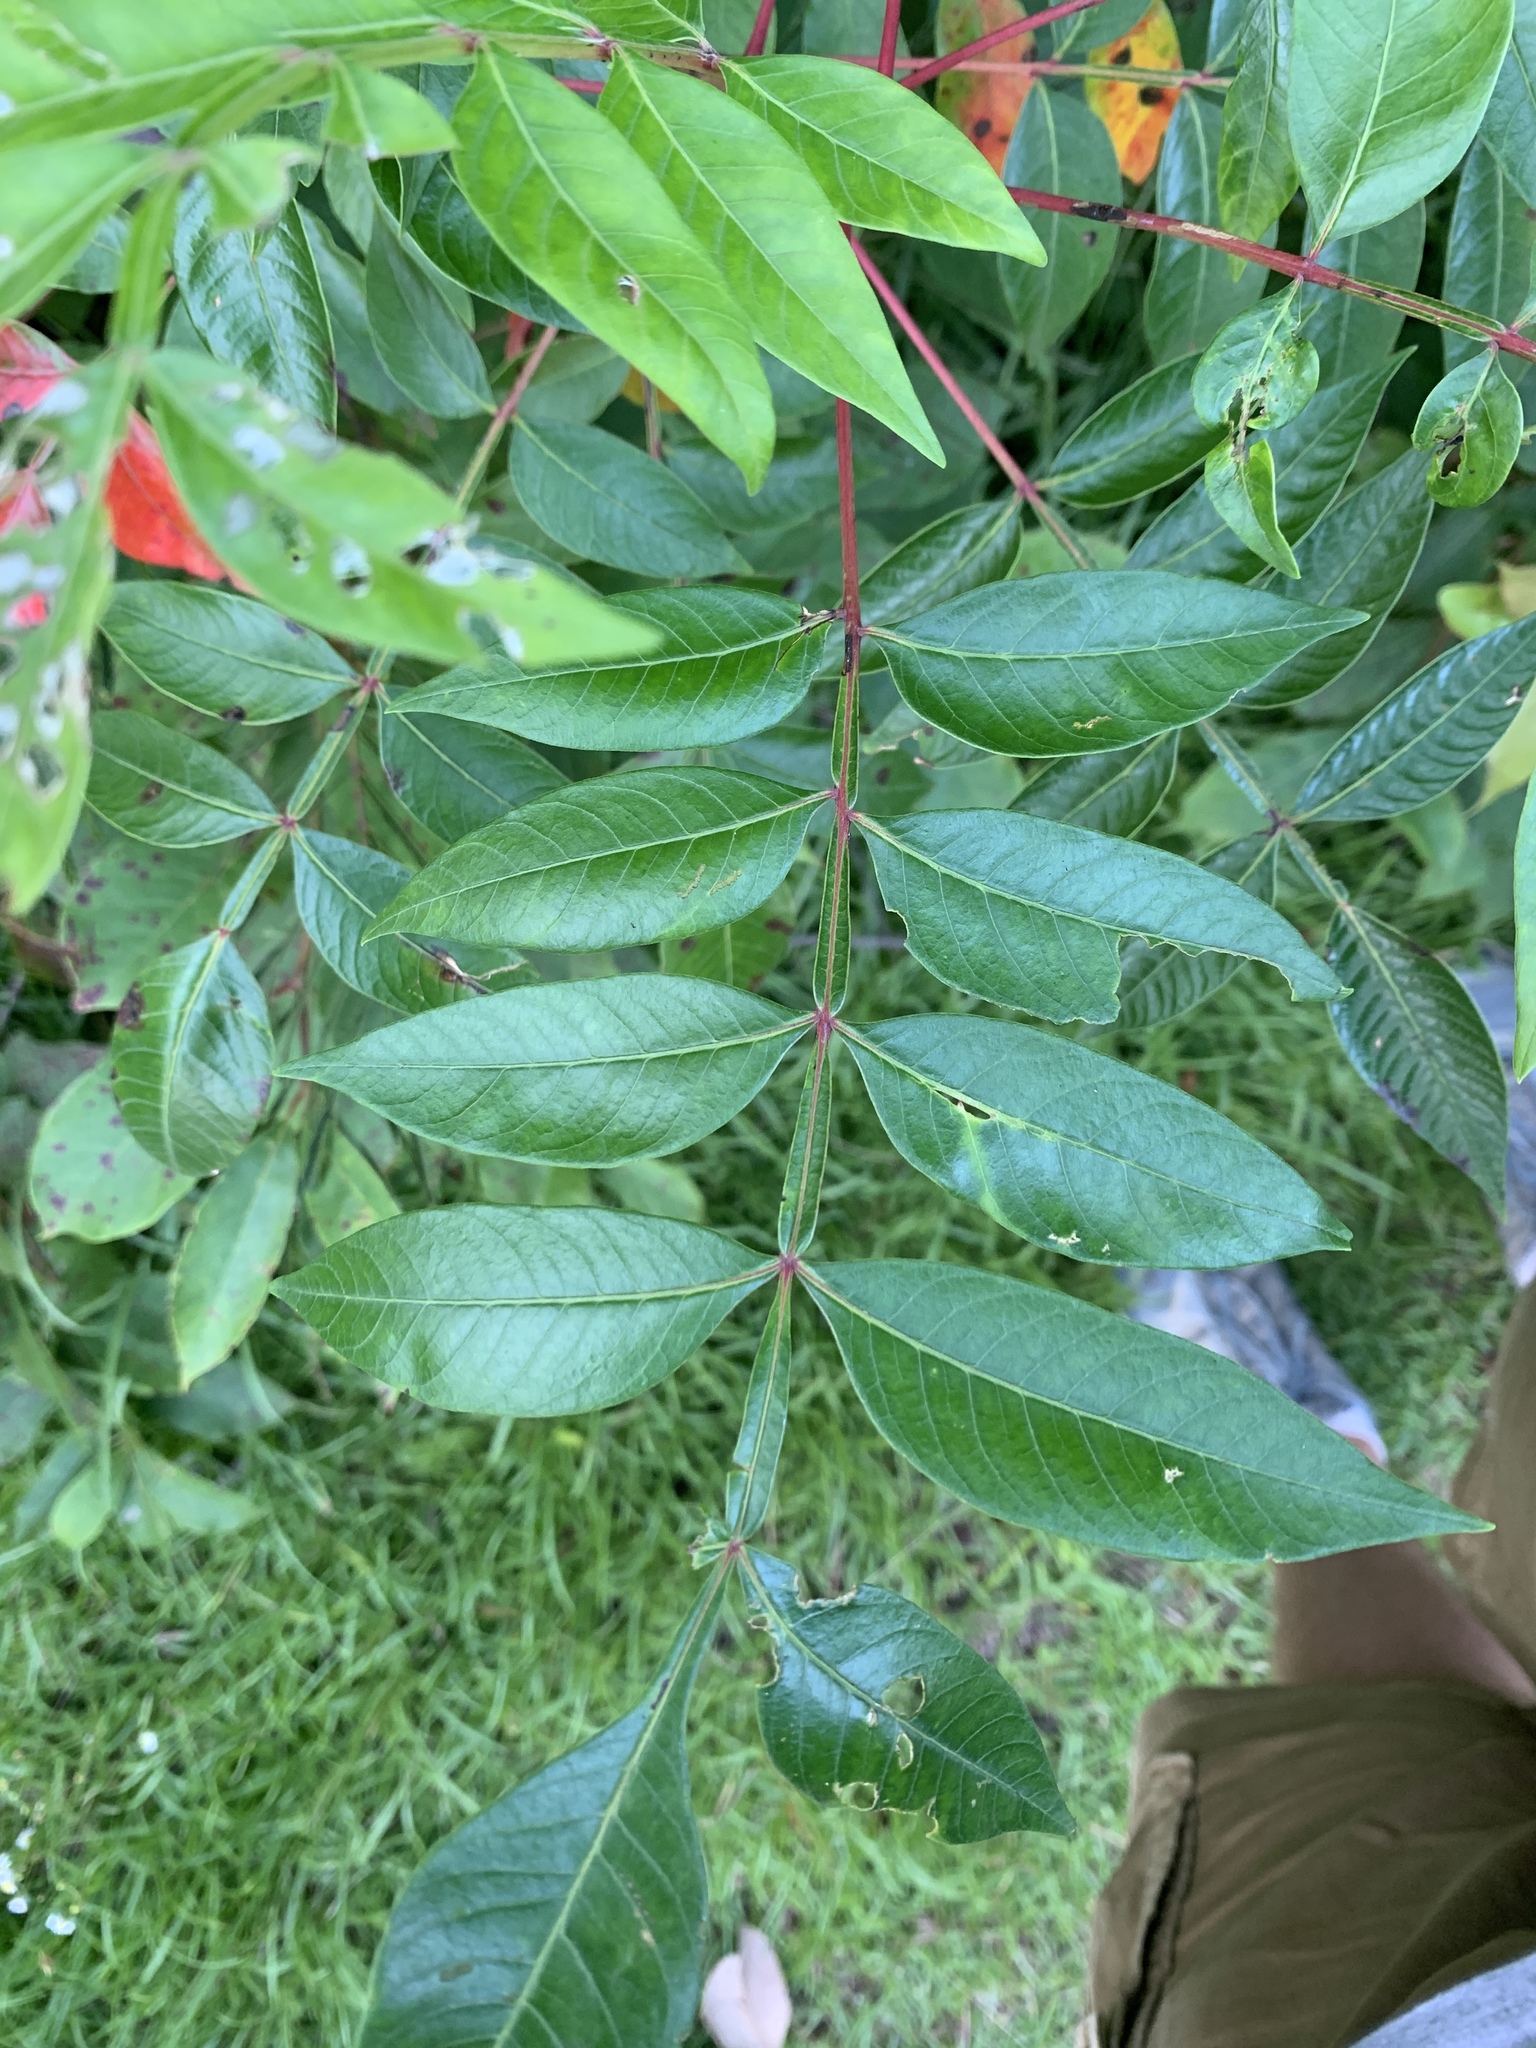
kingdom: Plantae
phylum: Tracheophyta
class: Magnoliopsida
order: Sapindales
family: Anacardiaceae
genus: Rhus
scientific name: Rhus copallina
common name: Shining sumac
